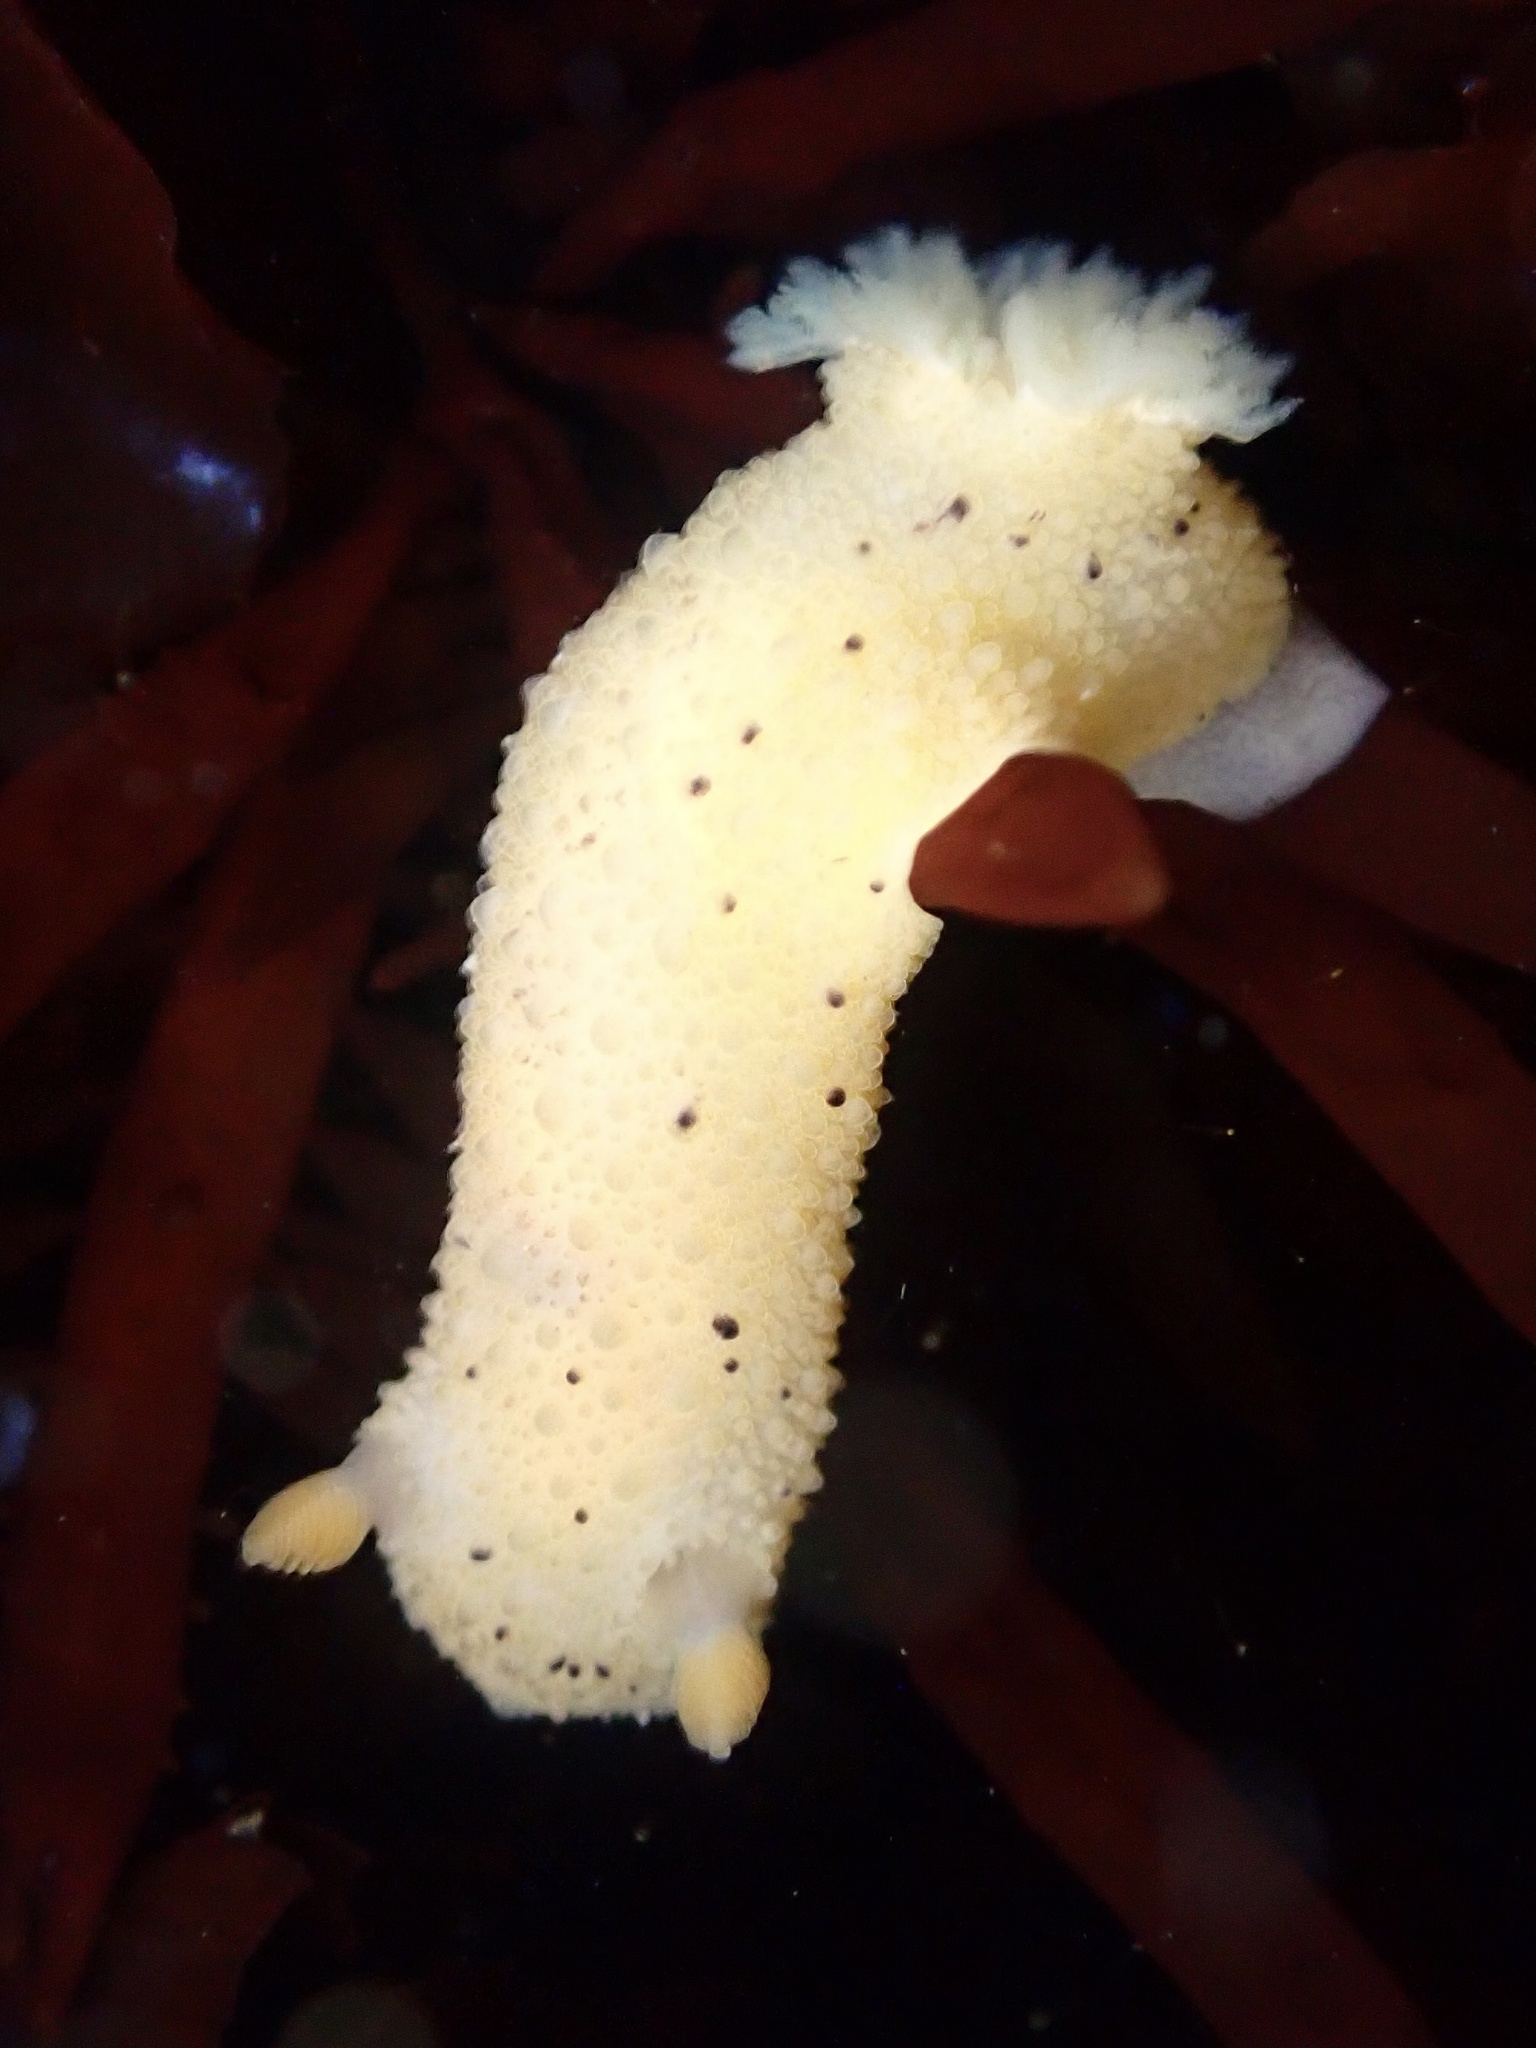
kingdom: Animalia
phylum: Mollusca
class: Gastropoda
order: Nudibranchia
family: Dorididae
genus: Doris
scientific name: Doris montereyensis
